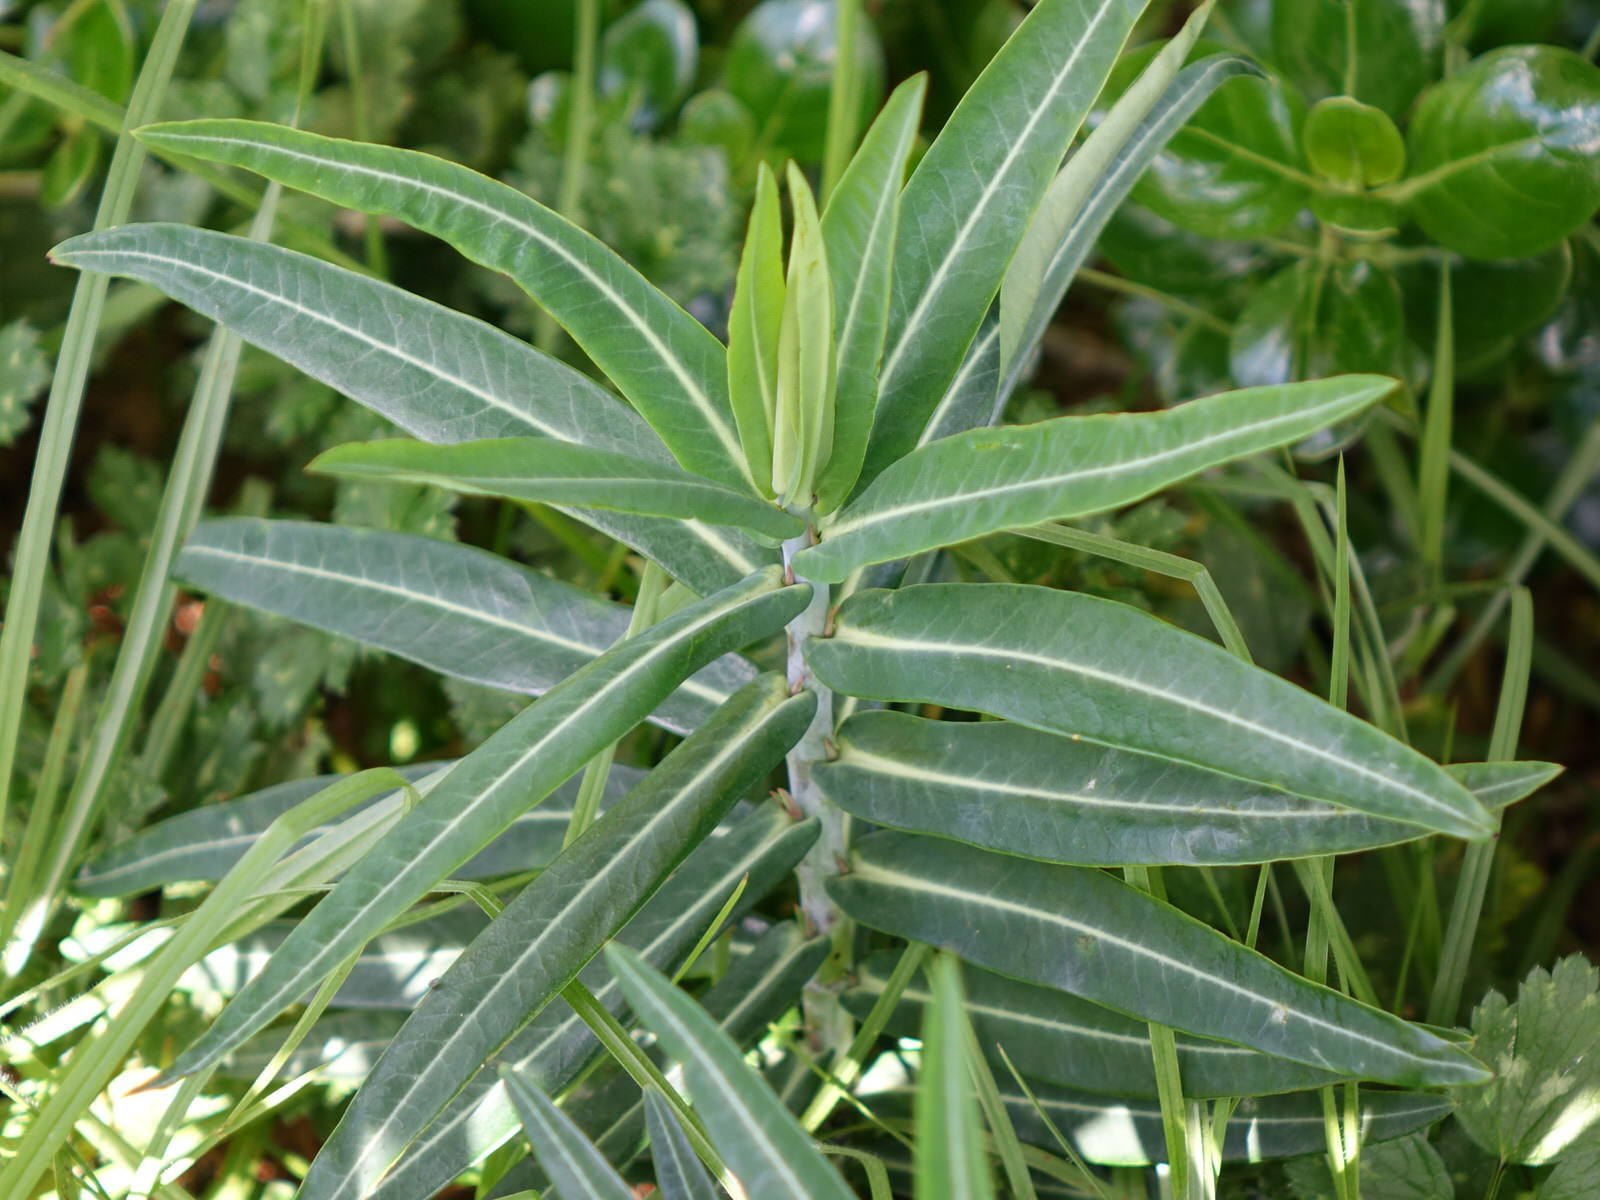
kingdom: Plantae
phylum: Tracheophyta
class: Magnoliopsida
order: Malpighiales
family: Euphorbiaceae
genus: Euphorbia
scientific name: Euphorbia lathyris
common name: Caper spurge
